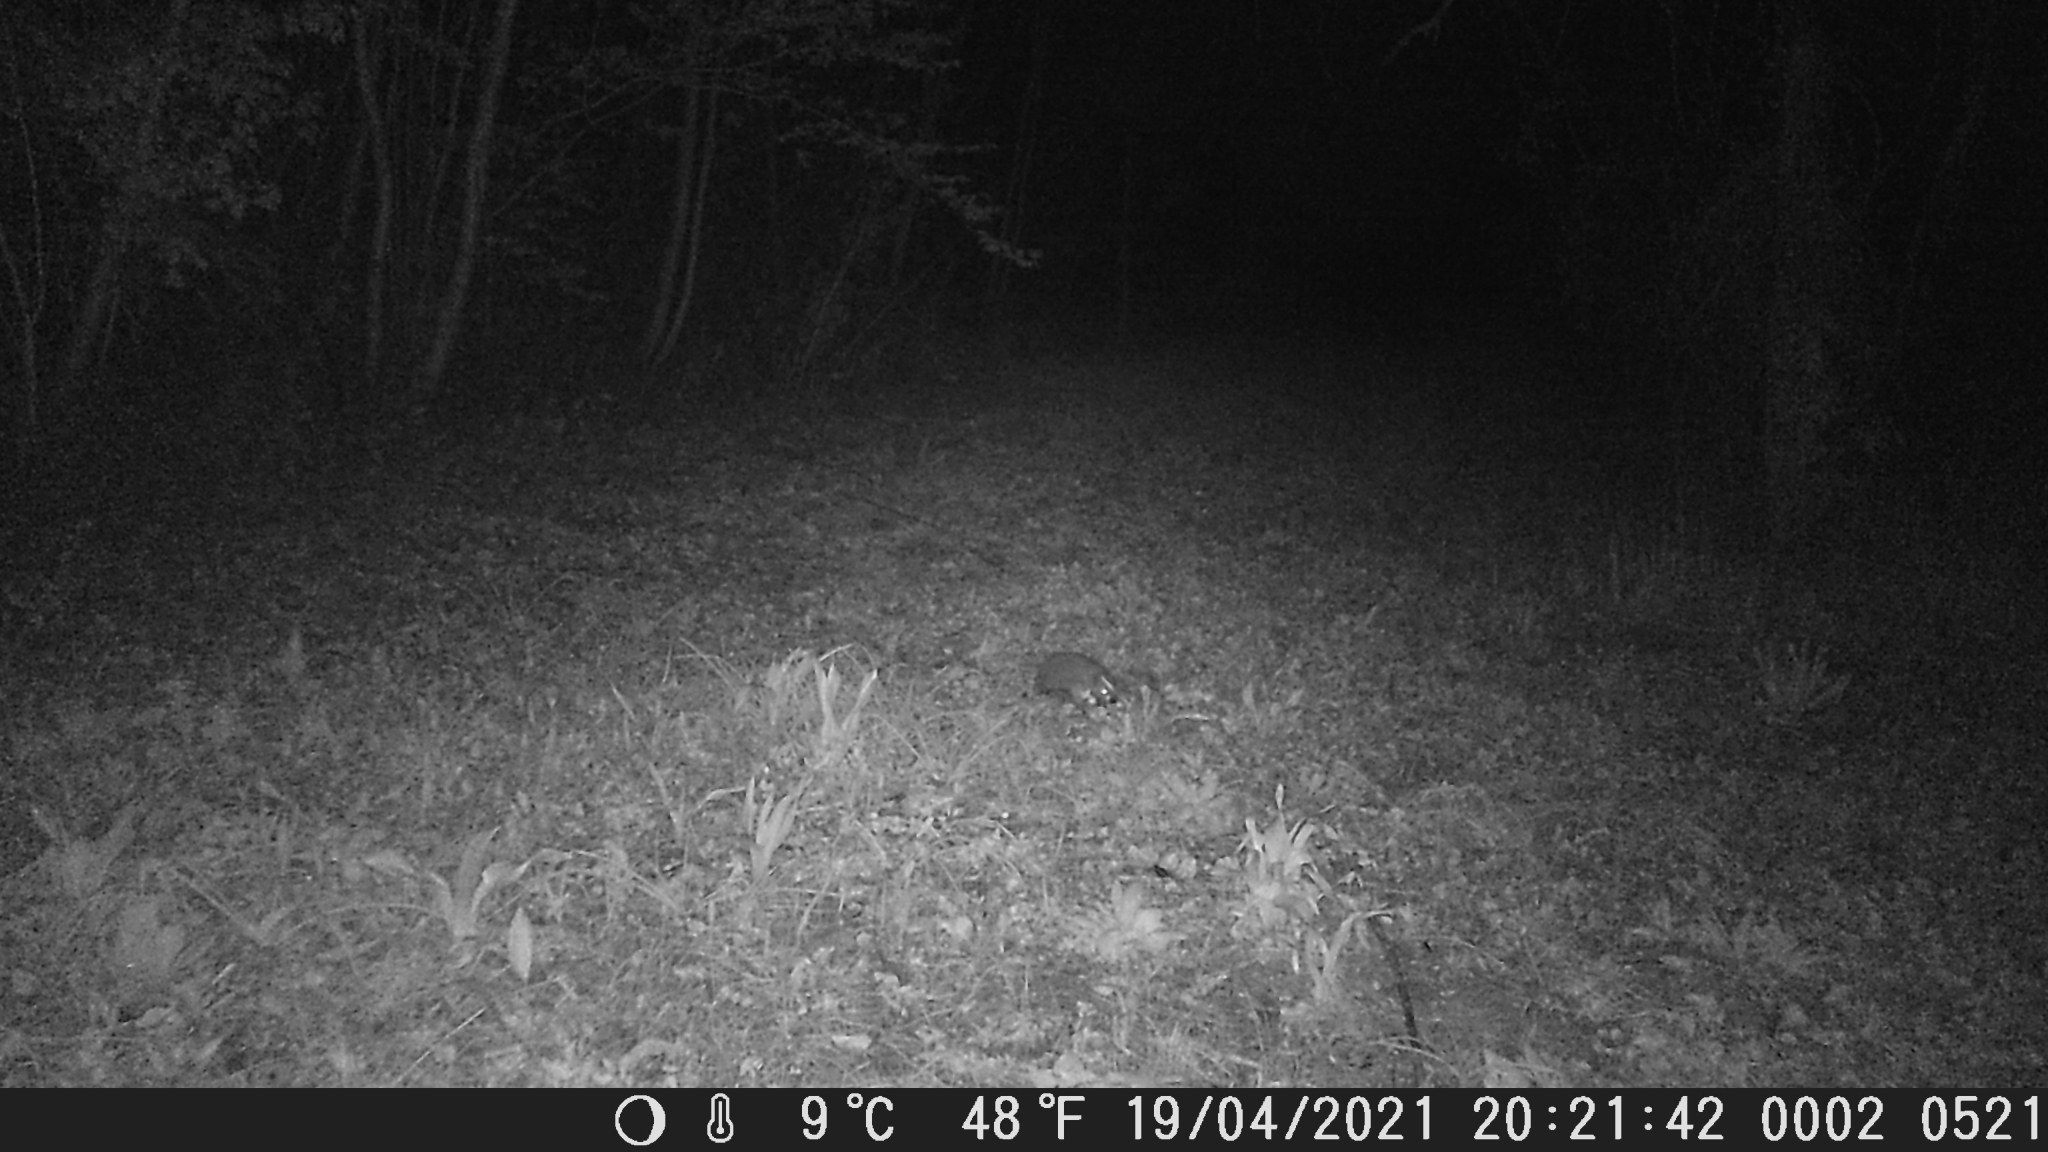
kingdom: Animalia
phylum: Chordata
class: Mammalia
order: Erinaceomorpha
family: Erinaceidae
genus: Erinaceus
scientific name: Erinaceus europaeus
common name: West european hedgehog
